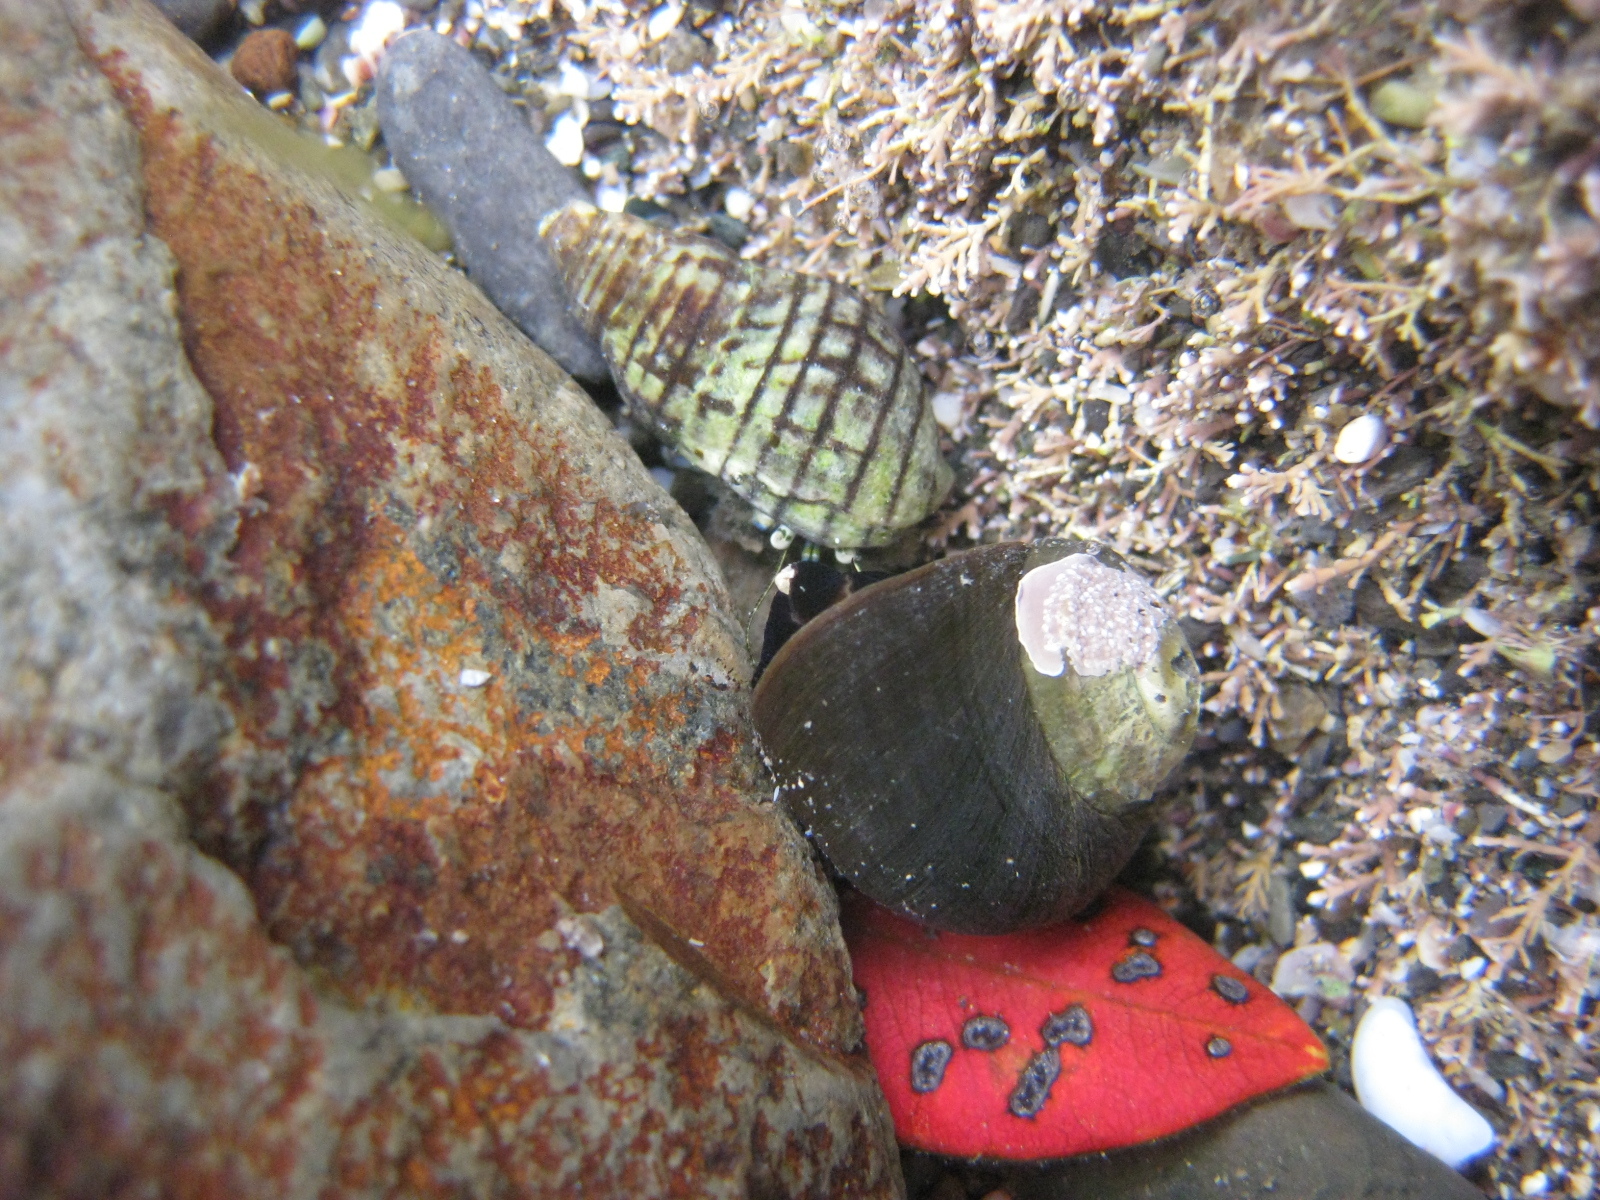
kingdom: Animalia
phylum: Arthropoda
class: Malacostraca
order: Decapoda
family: Paguridae
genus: Pagurus
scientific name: Pagurus novizealandiae
